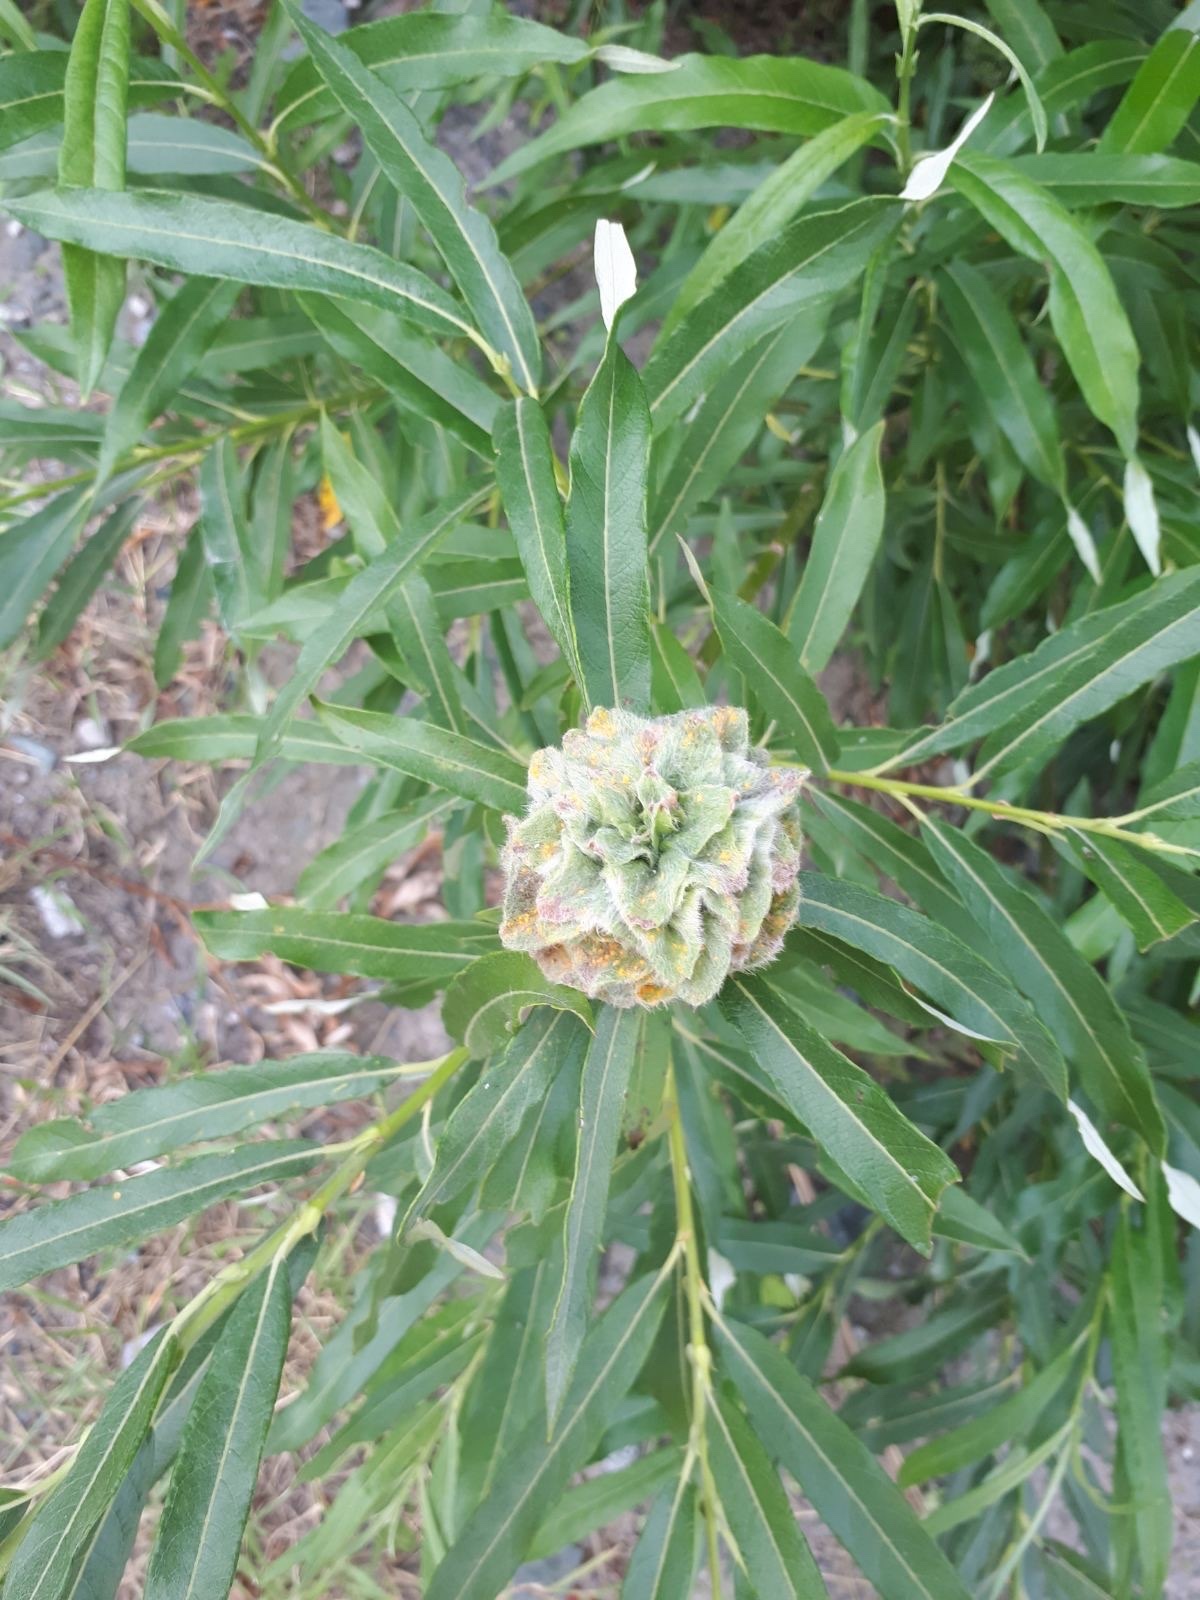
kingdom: Plantae
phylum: Tracheophyta
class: Magnoliopsida
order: Malpighiales
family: Salicaceae
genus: Salix
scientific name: Salix viminalis
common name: Osier
